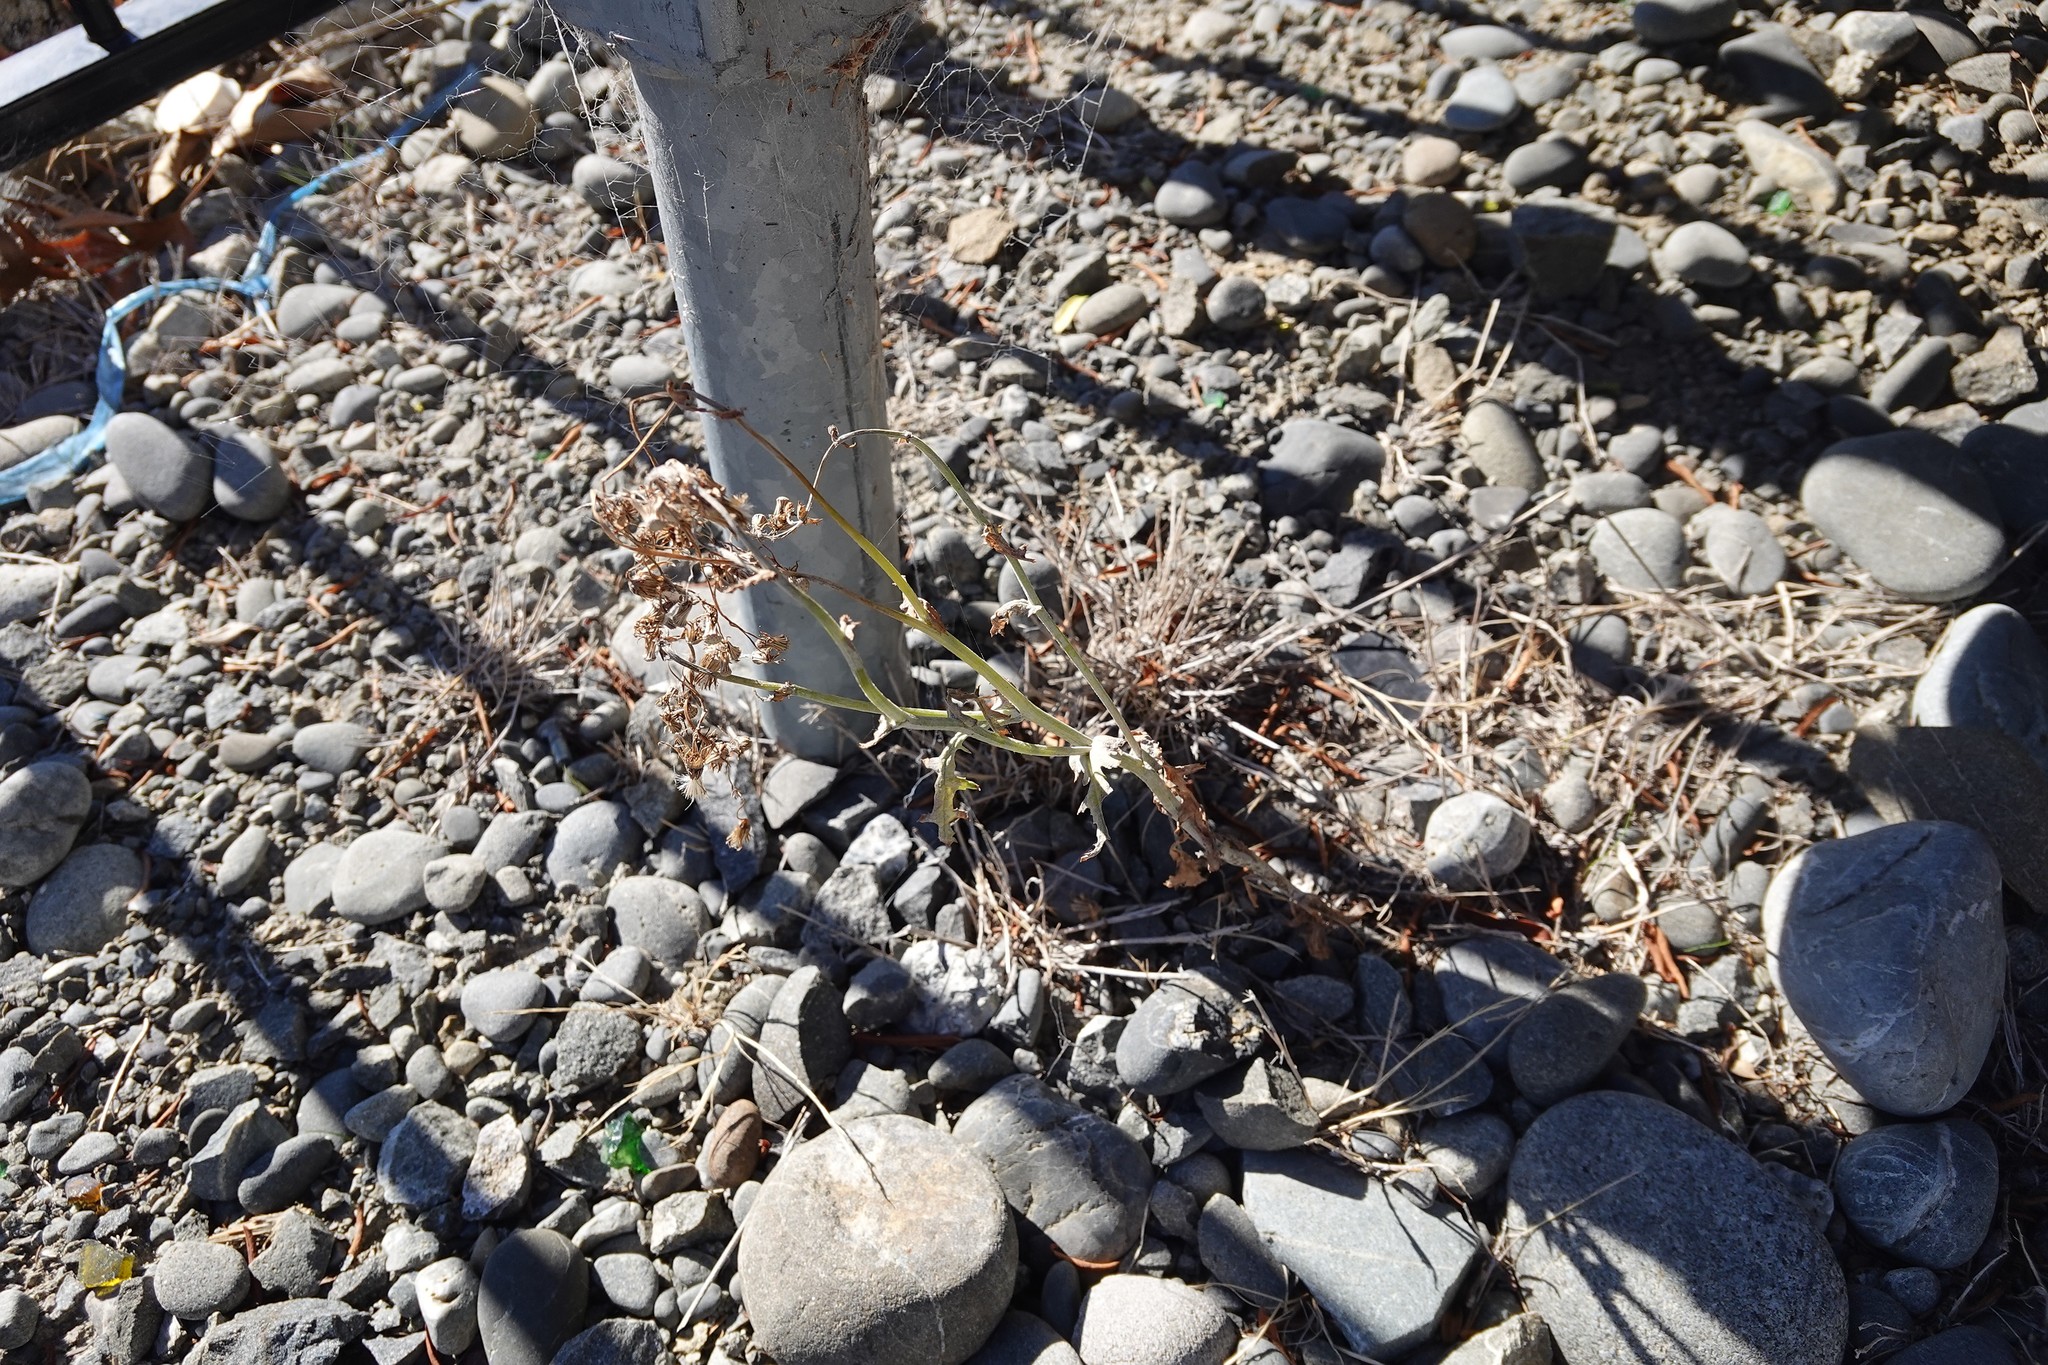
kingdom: Plantae
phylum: Tracheophyta
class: Magnoliopsida
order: Asterales
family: Asteraceae
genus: Senecio
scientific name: Senecio vulgaris
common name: Old-man-in-the-spring
